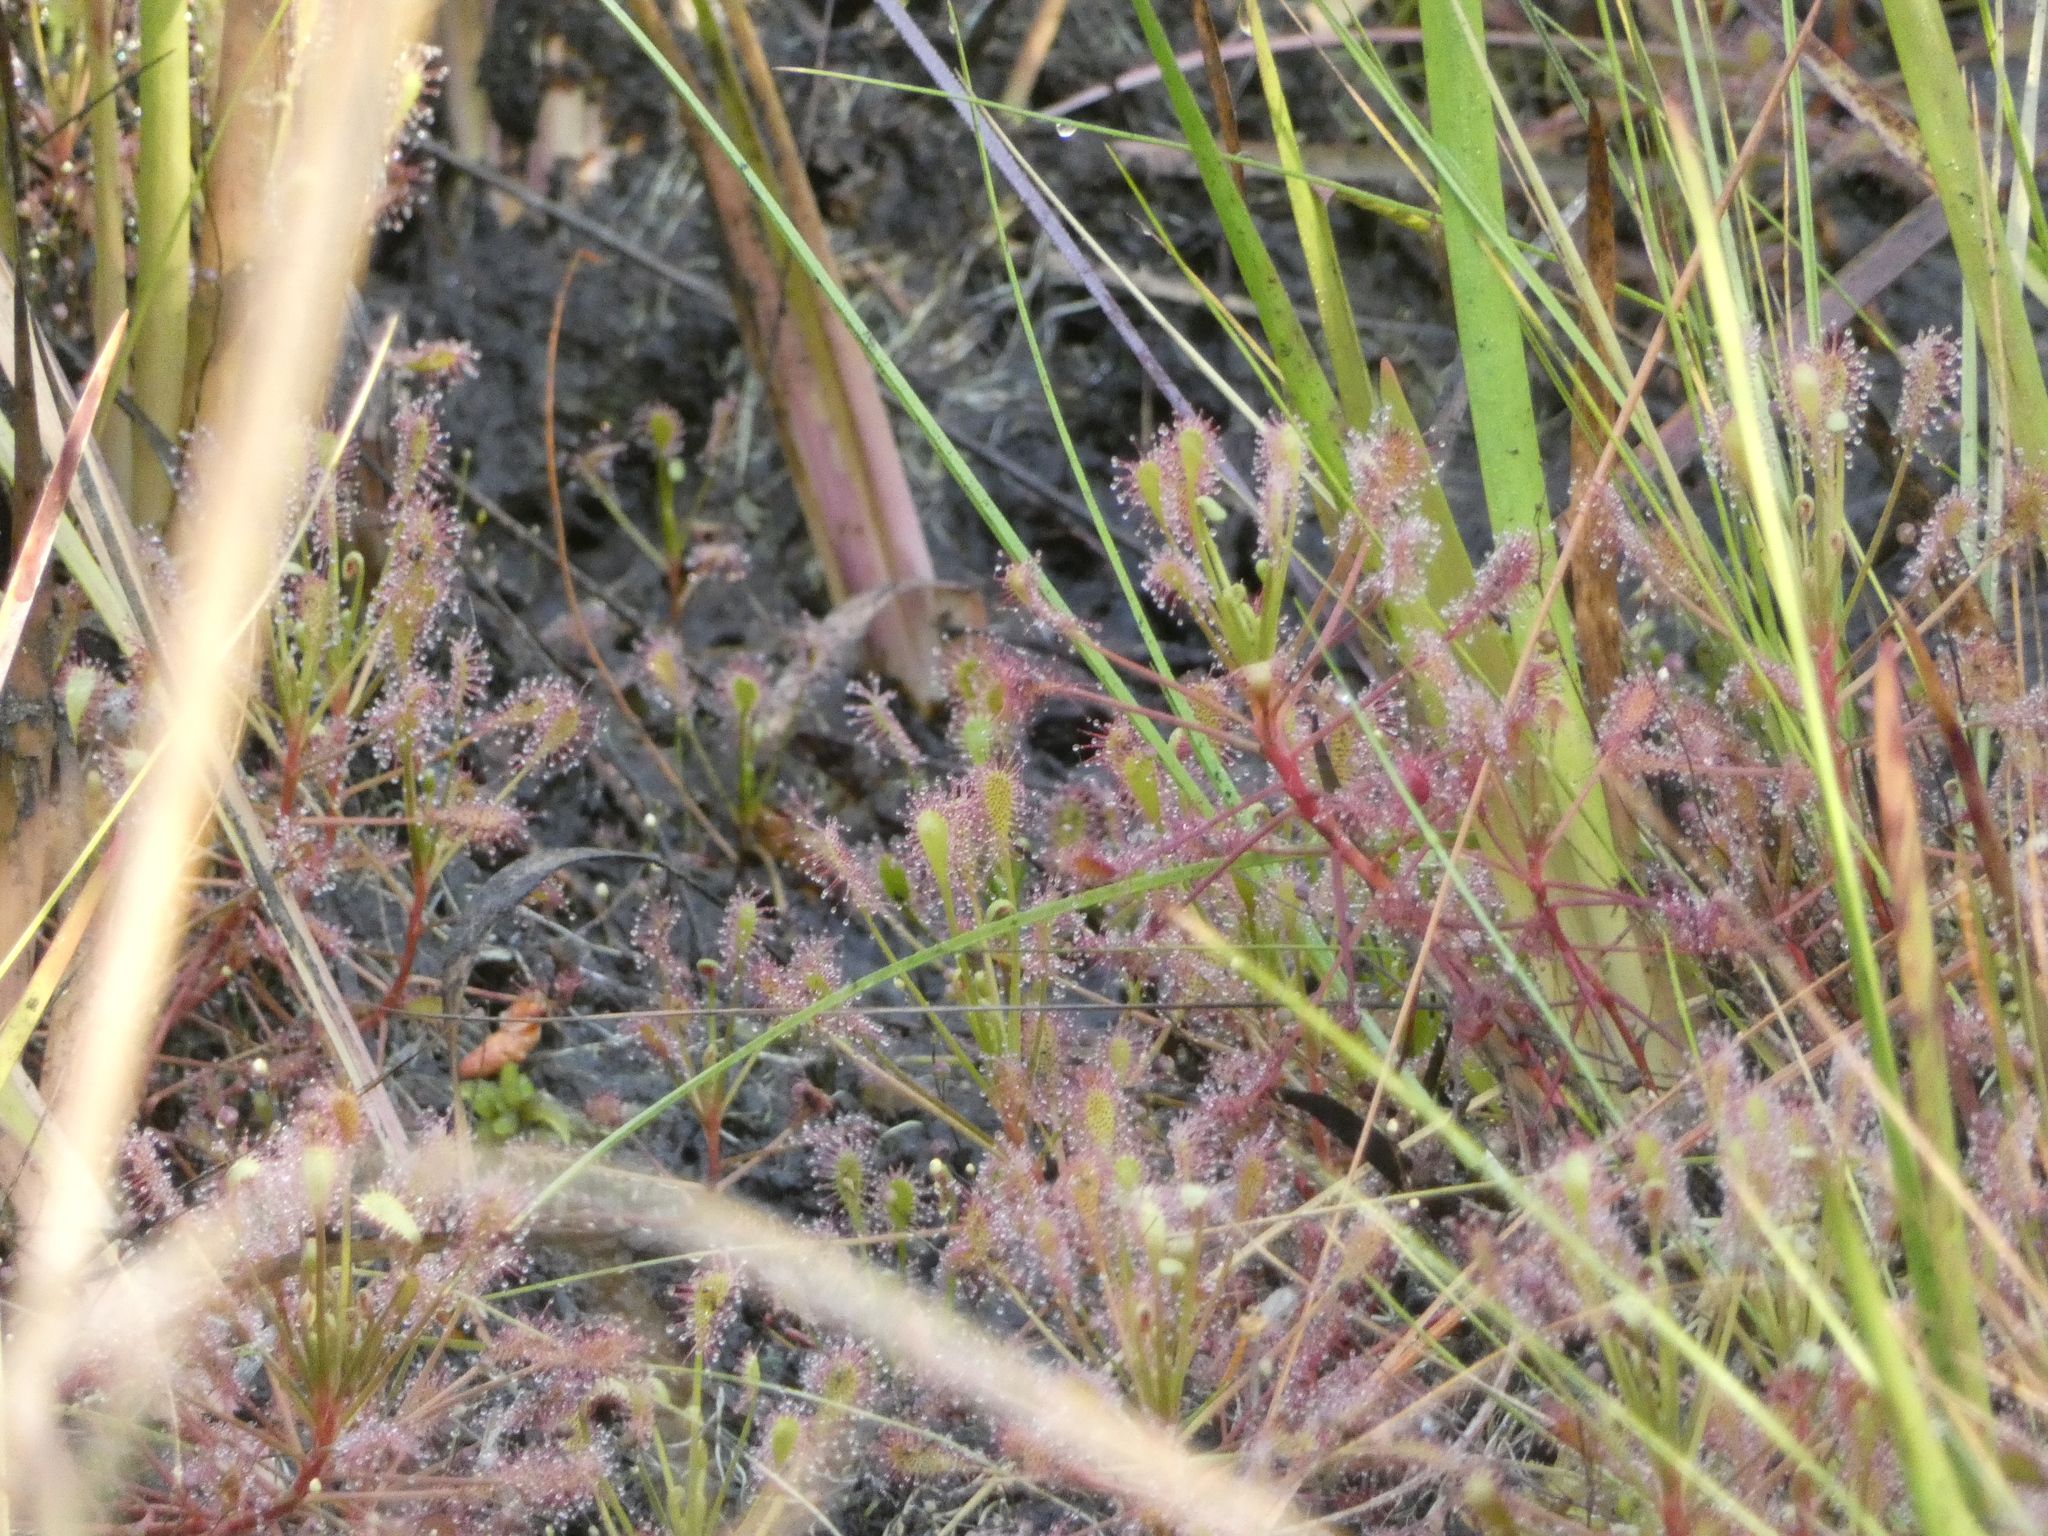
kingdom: Plantae
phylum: Tracheophyta
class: Magnoliopsida
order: Caryophyllales
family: Droseraceae
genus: Drosera
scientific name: Drosera intermedia
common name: Oblong-leaved sundew
